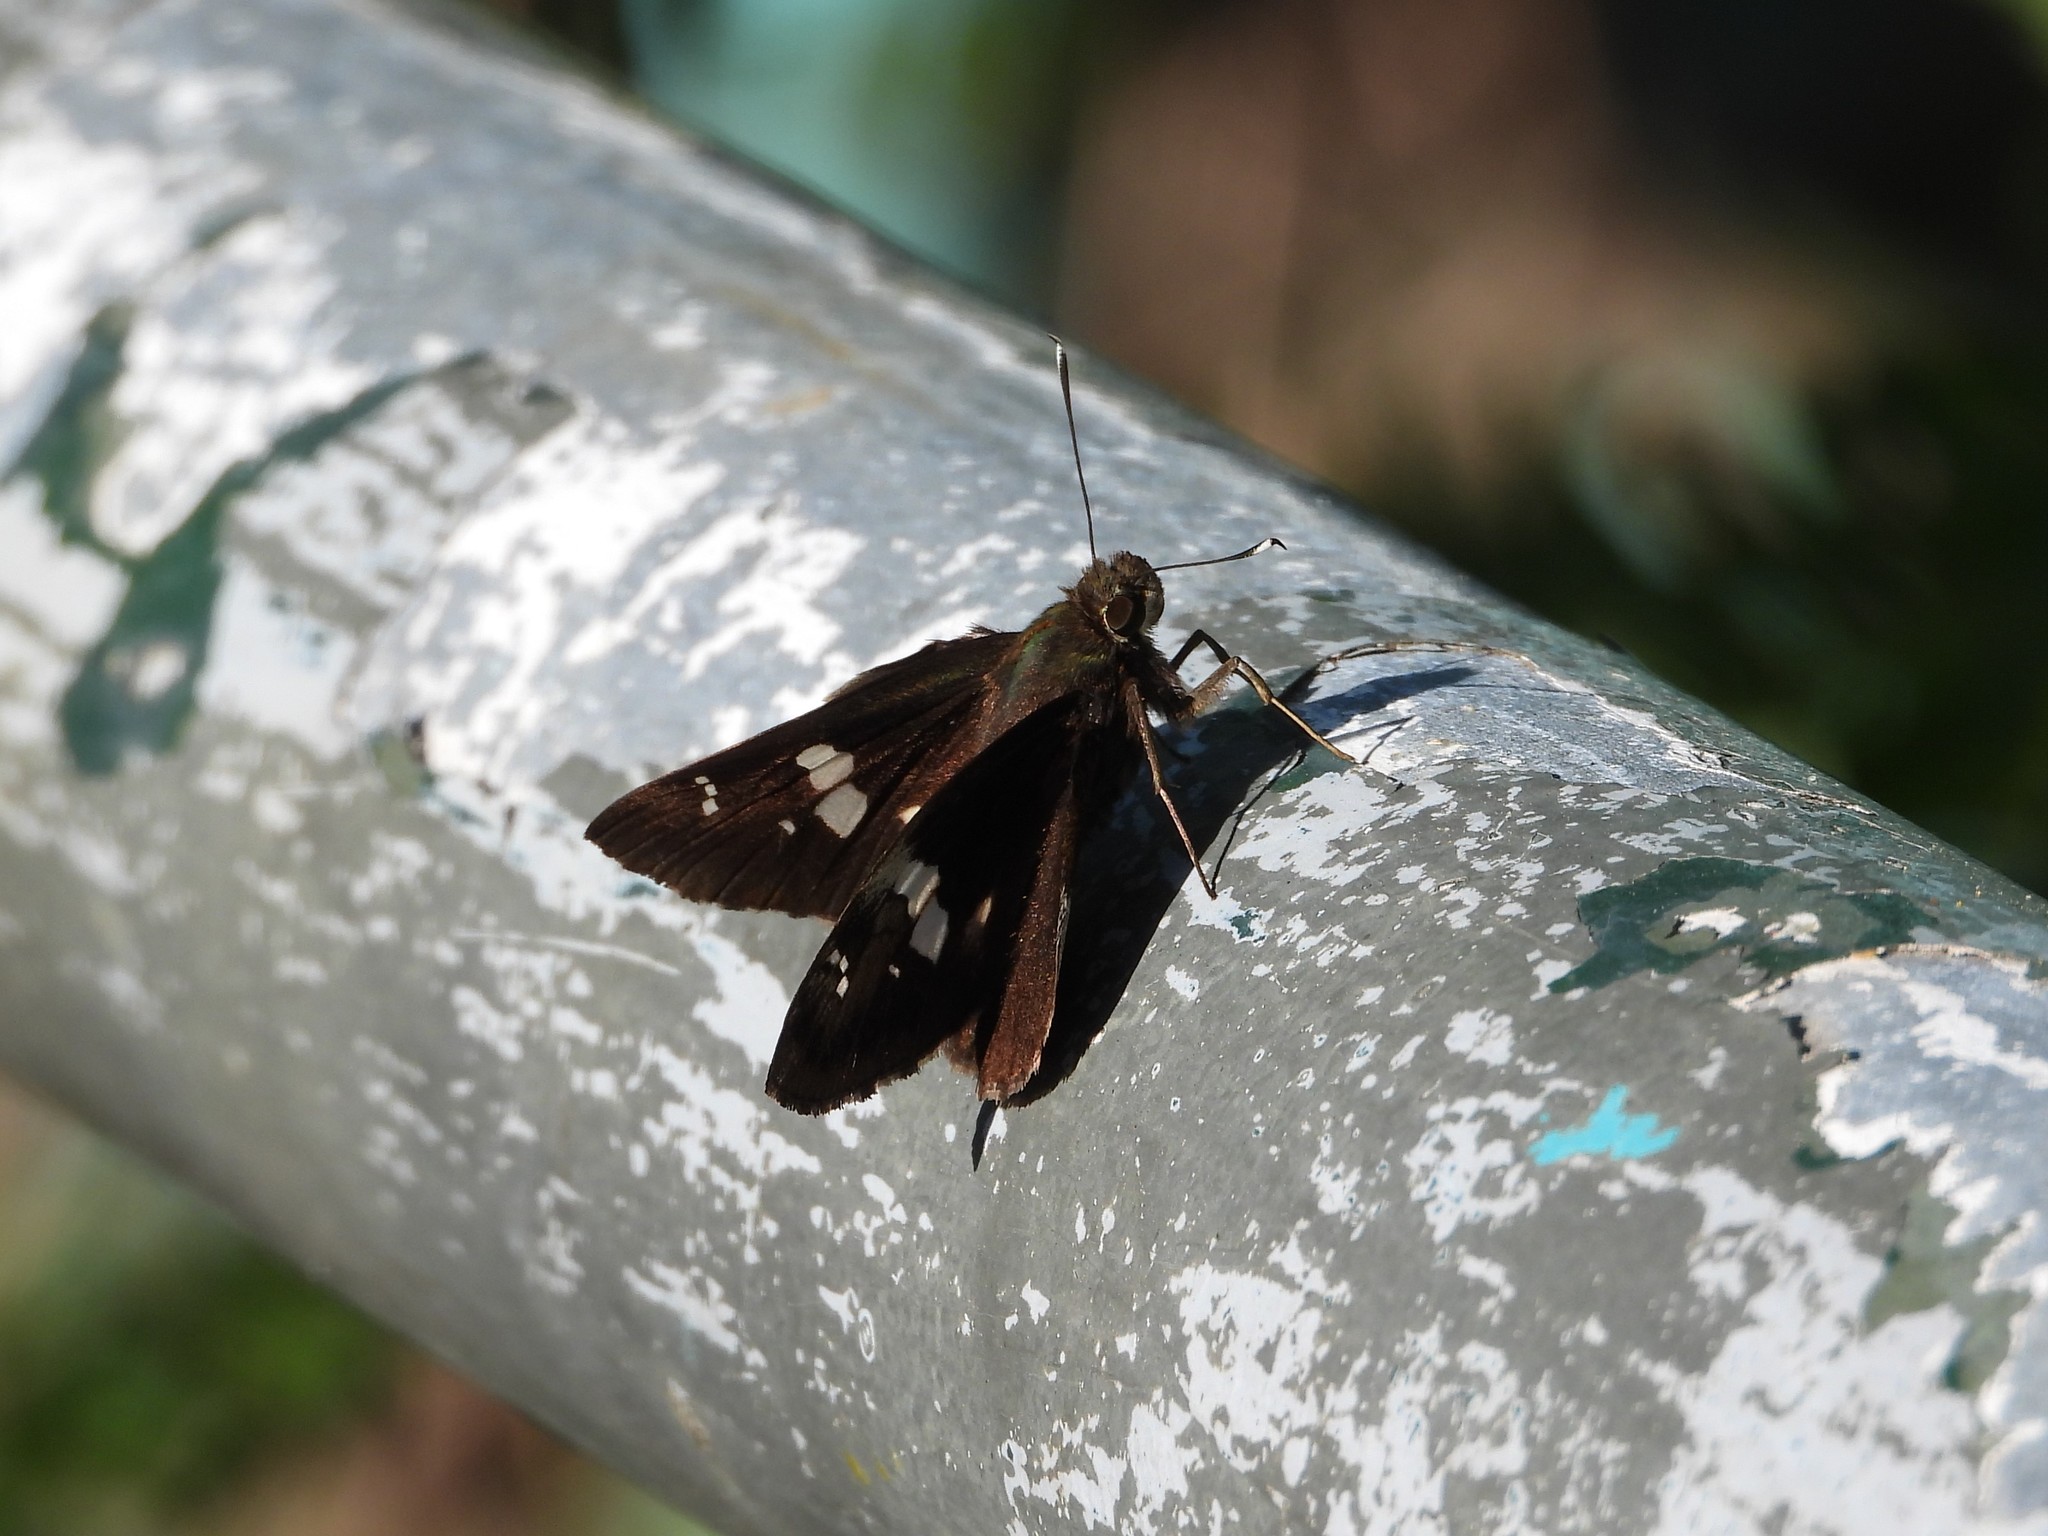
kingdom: Animalia
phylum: Arthropoda
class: Insecta
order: Lepidoptera
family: Hesperiidae
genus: Notocrypta
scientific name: Notocrypta curvifascia
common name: Restricted demon
